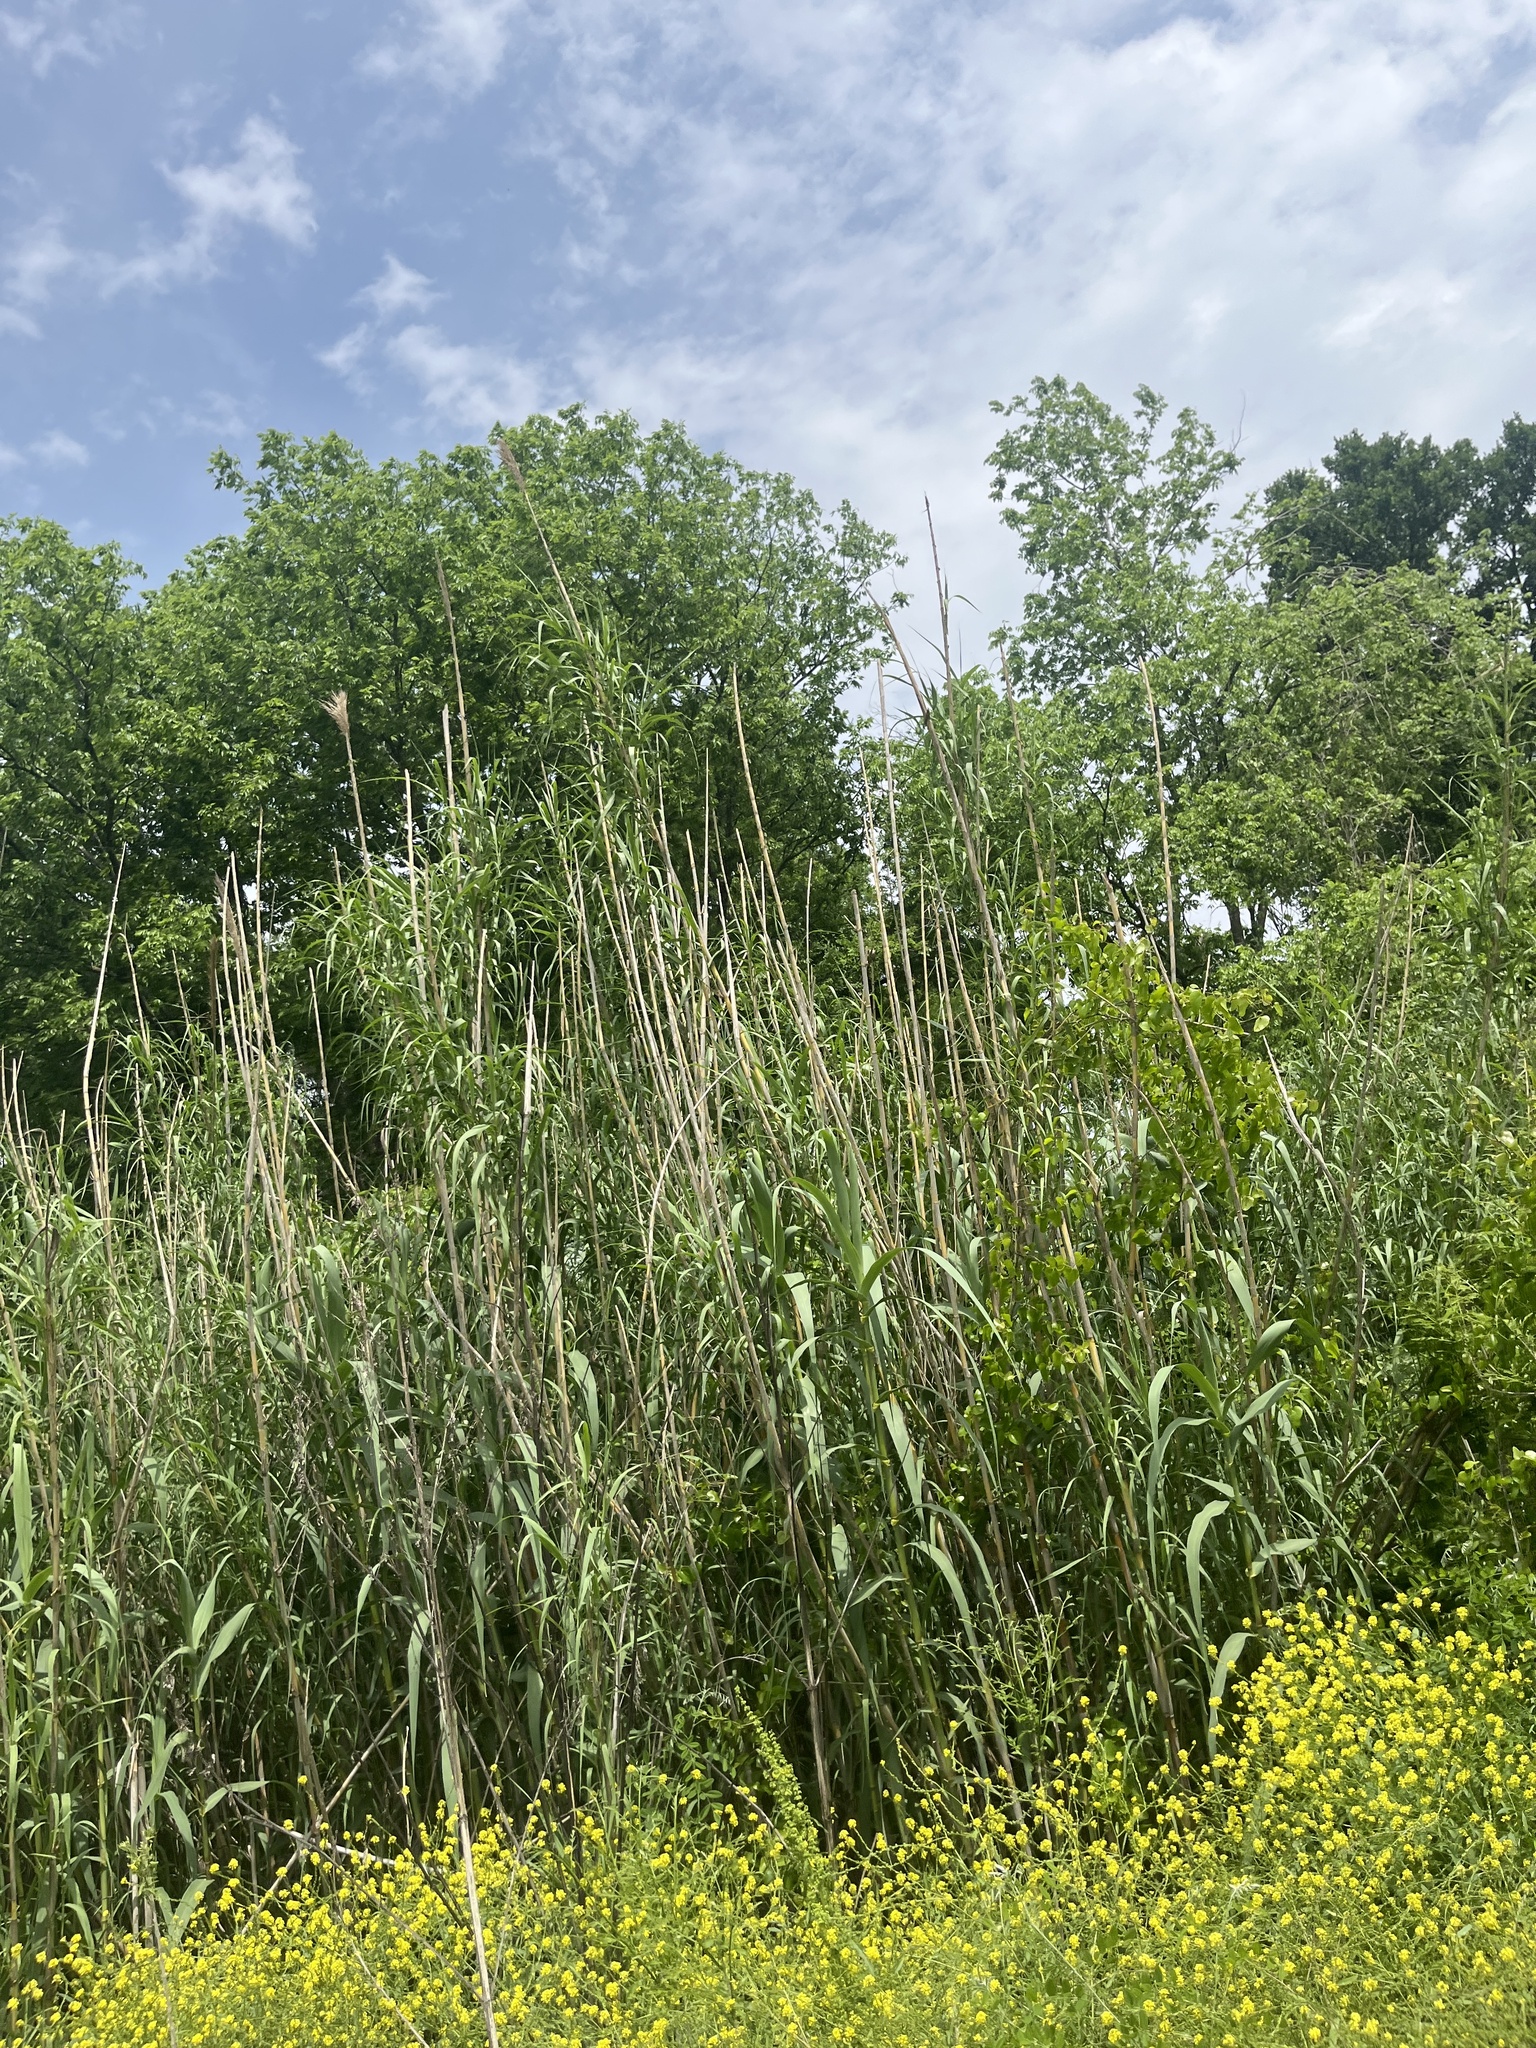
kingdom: Plantae
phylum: Tracheophyta
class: Liliopsida
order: Poales
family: Poaceae
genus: Arundo
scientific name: Arundo donax
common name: Giant reed
